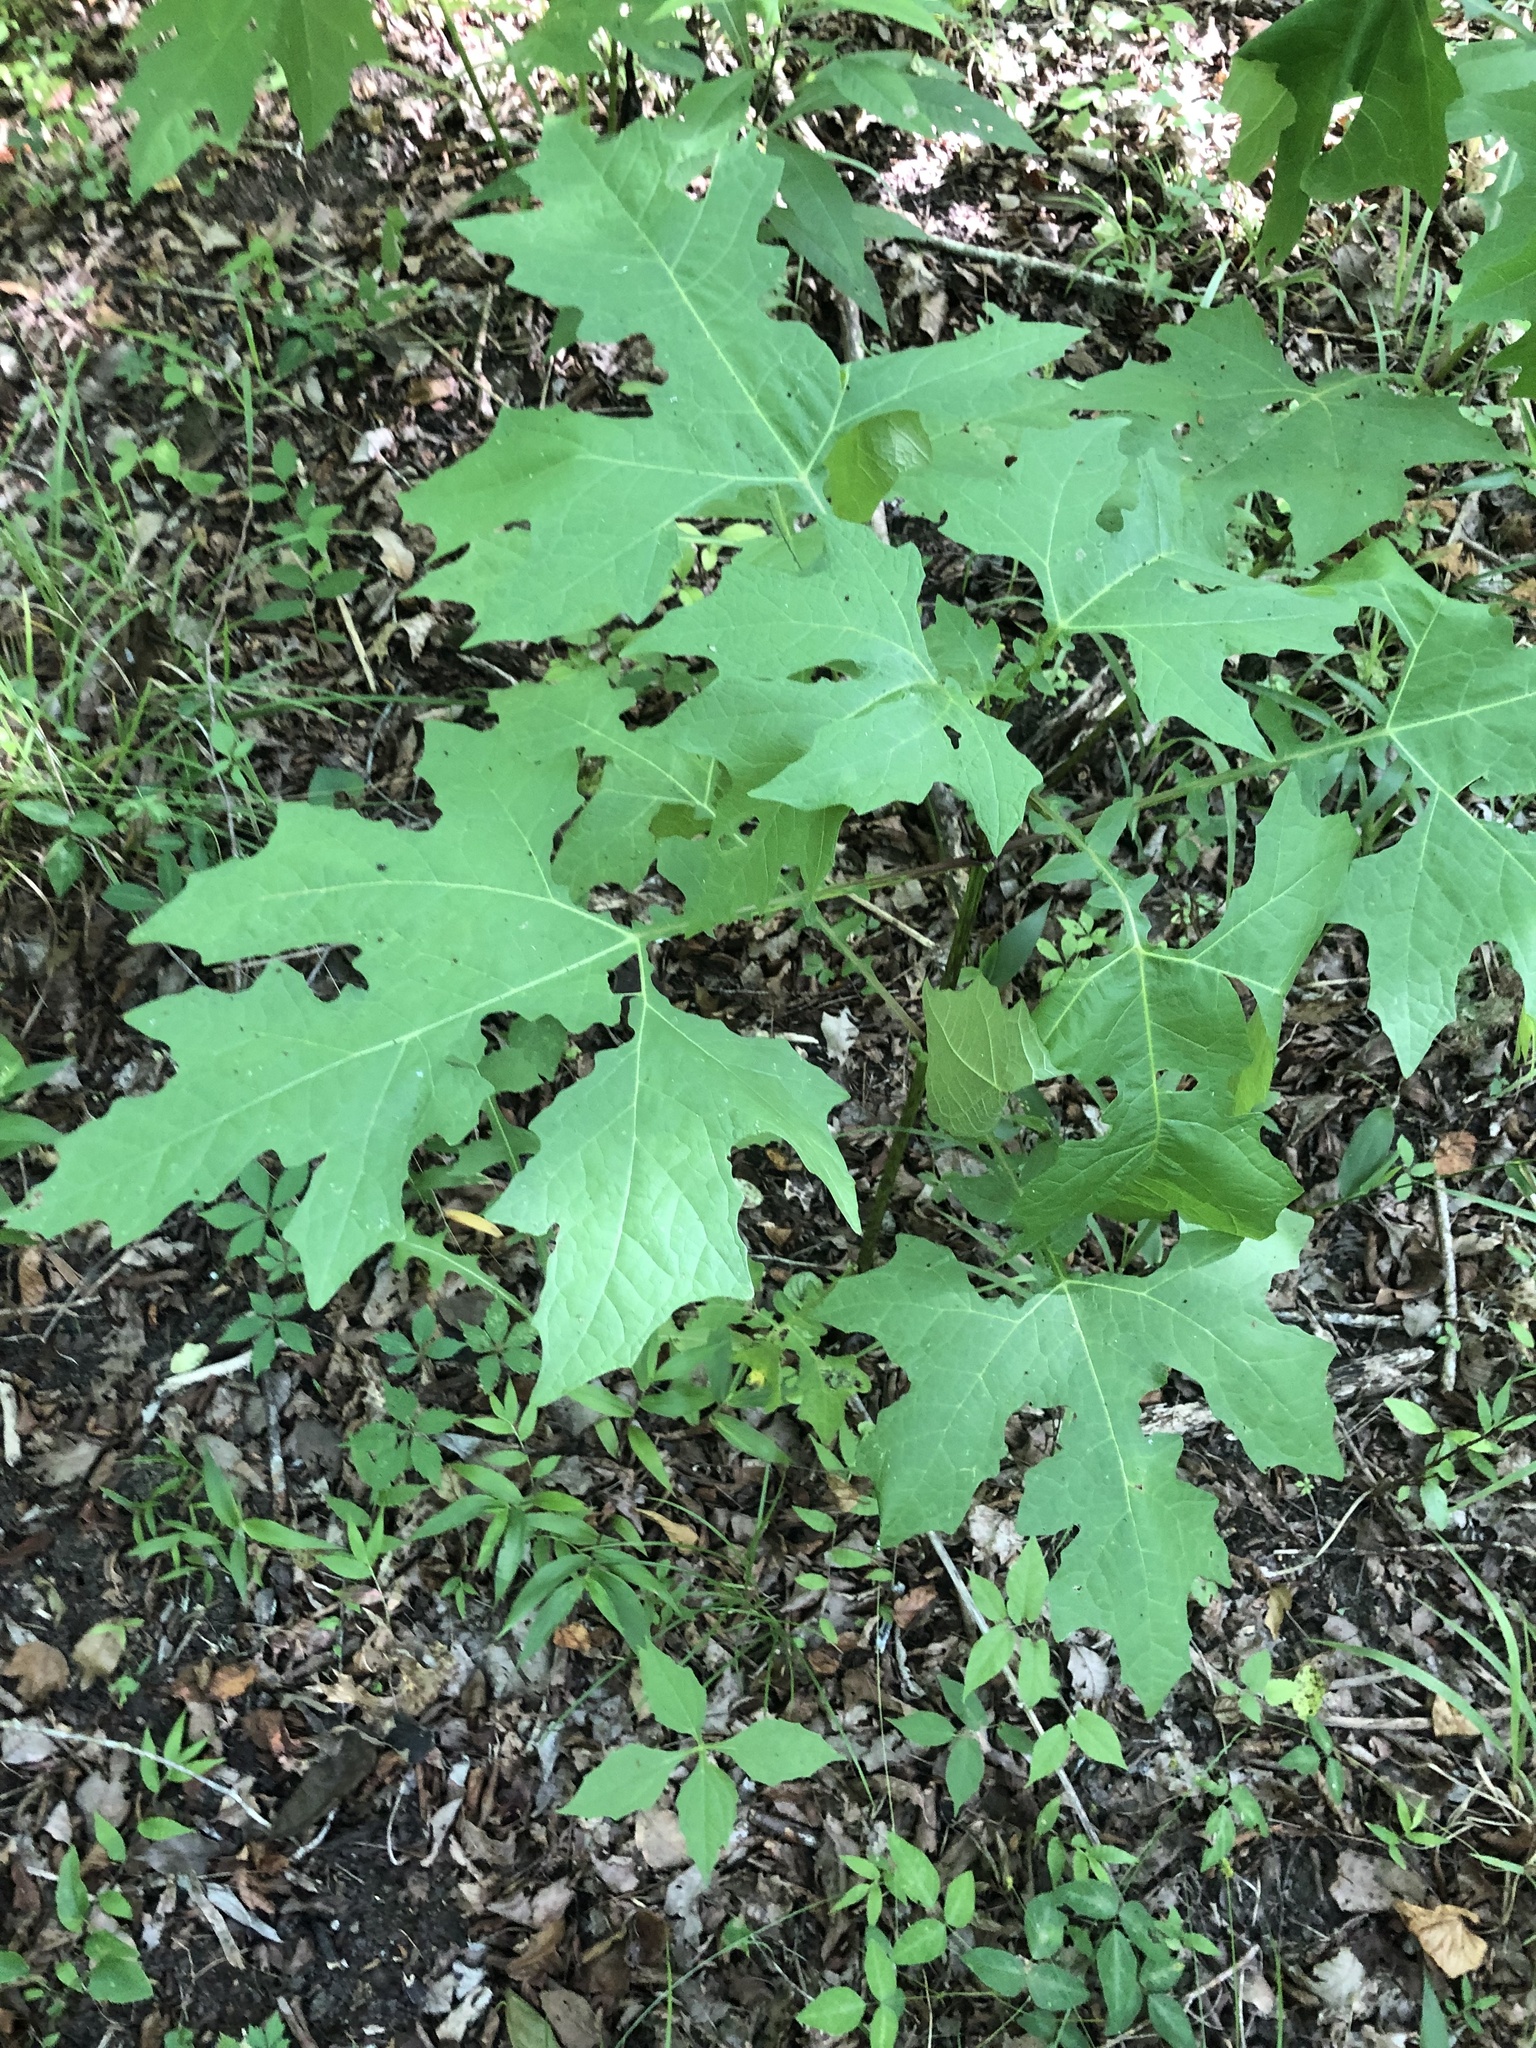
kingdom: Plantae
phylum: Tracheophyta
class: Magnoliopsida
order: Asterales
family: Asteraceae
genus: Smallanthus
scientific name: Smallanthus uvedalia
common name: Bear's-foot
